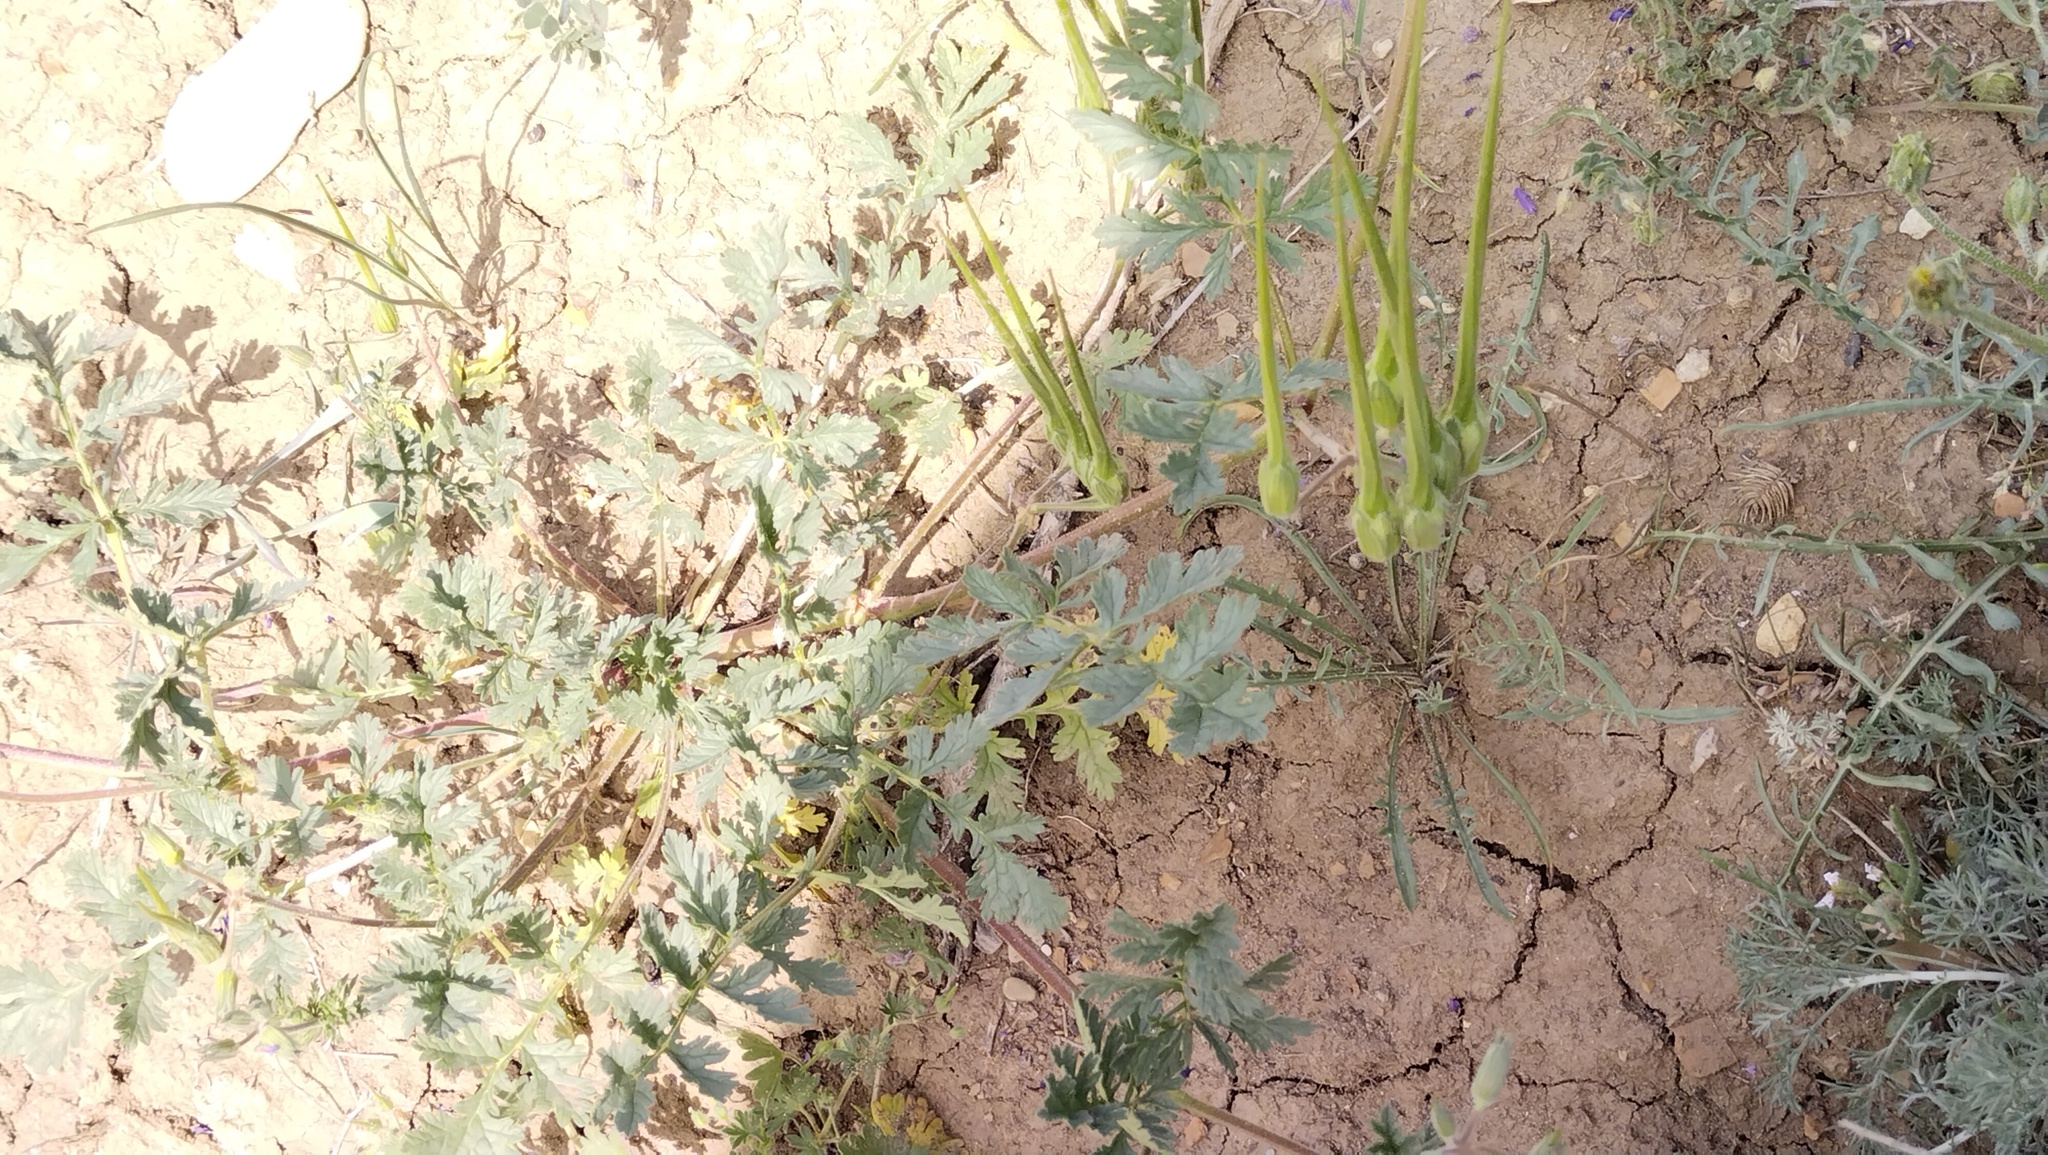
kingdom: Plantae
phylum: Tracheophyta
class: Magnoliopsida
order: Geraniales
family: Geraniaceae
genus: Erodium
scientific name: Erodium ciconium
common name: Common stork's bill
